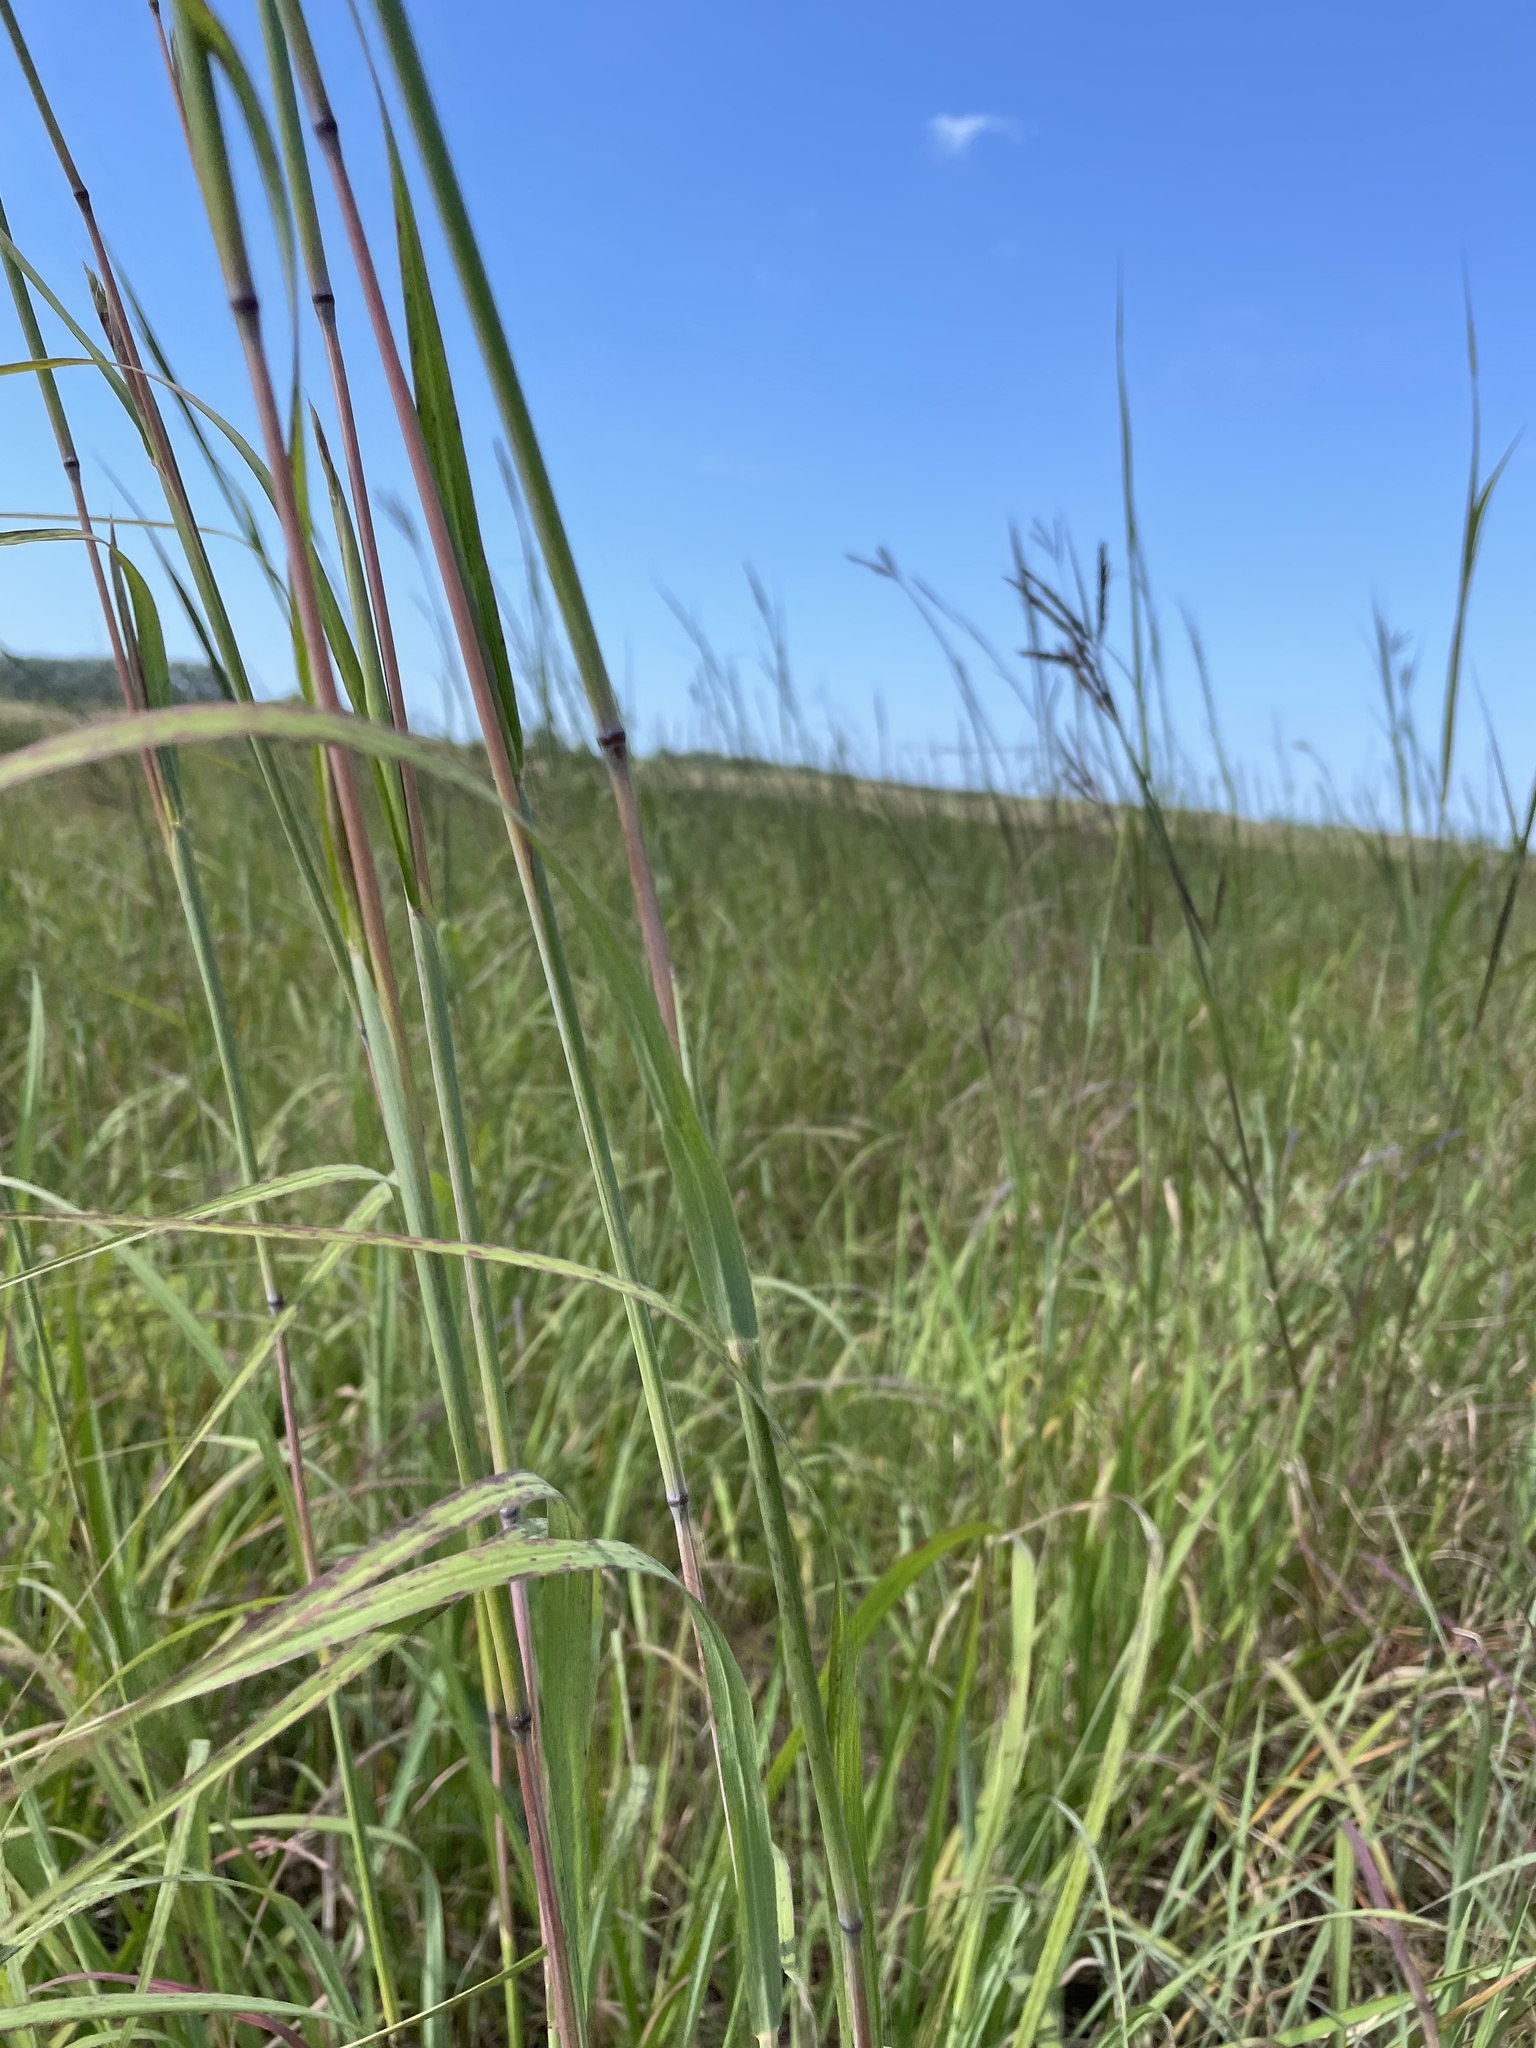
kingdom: Plantae
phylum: Tracheophyta
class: Liliopsida
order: Poales
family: Poaceae
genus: Andropogon
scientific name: Andropogon gerardi
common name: Big bluestem
